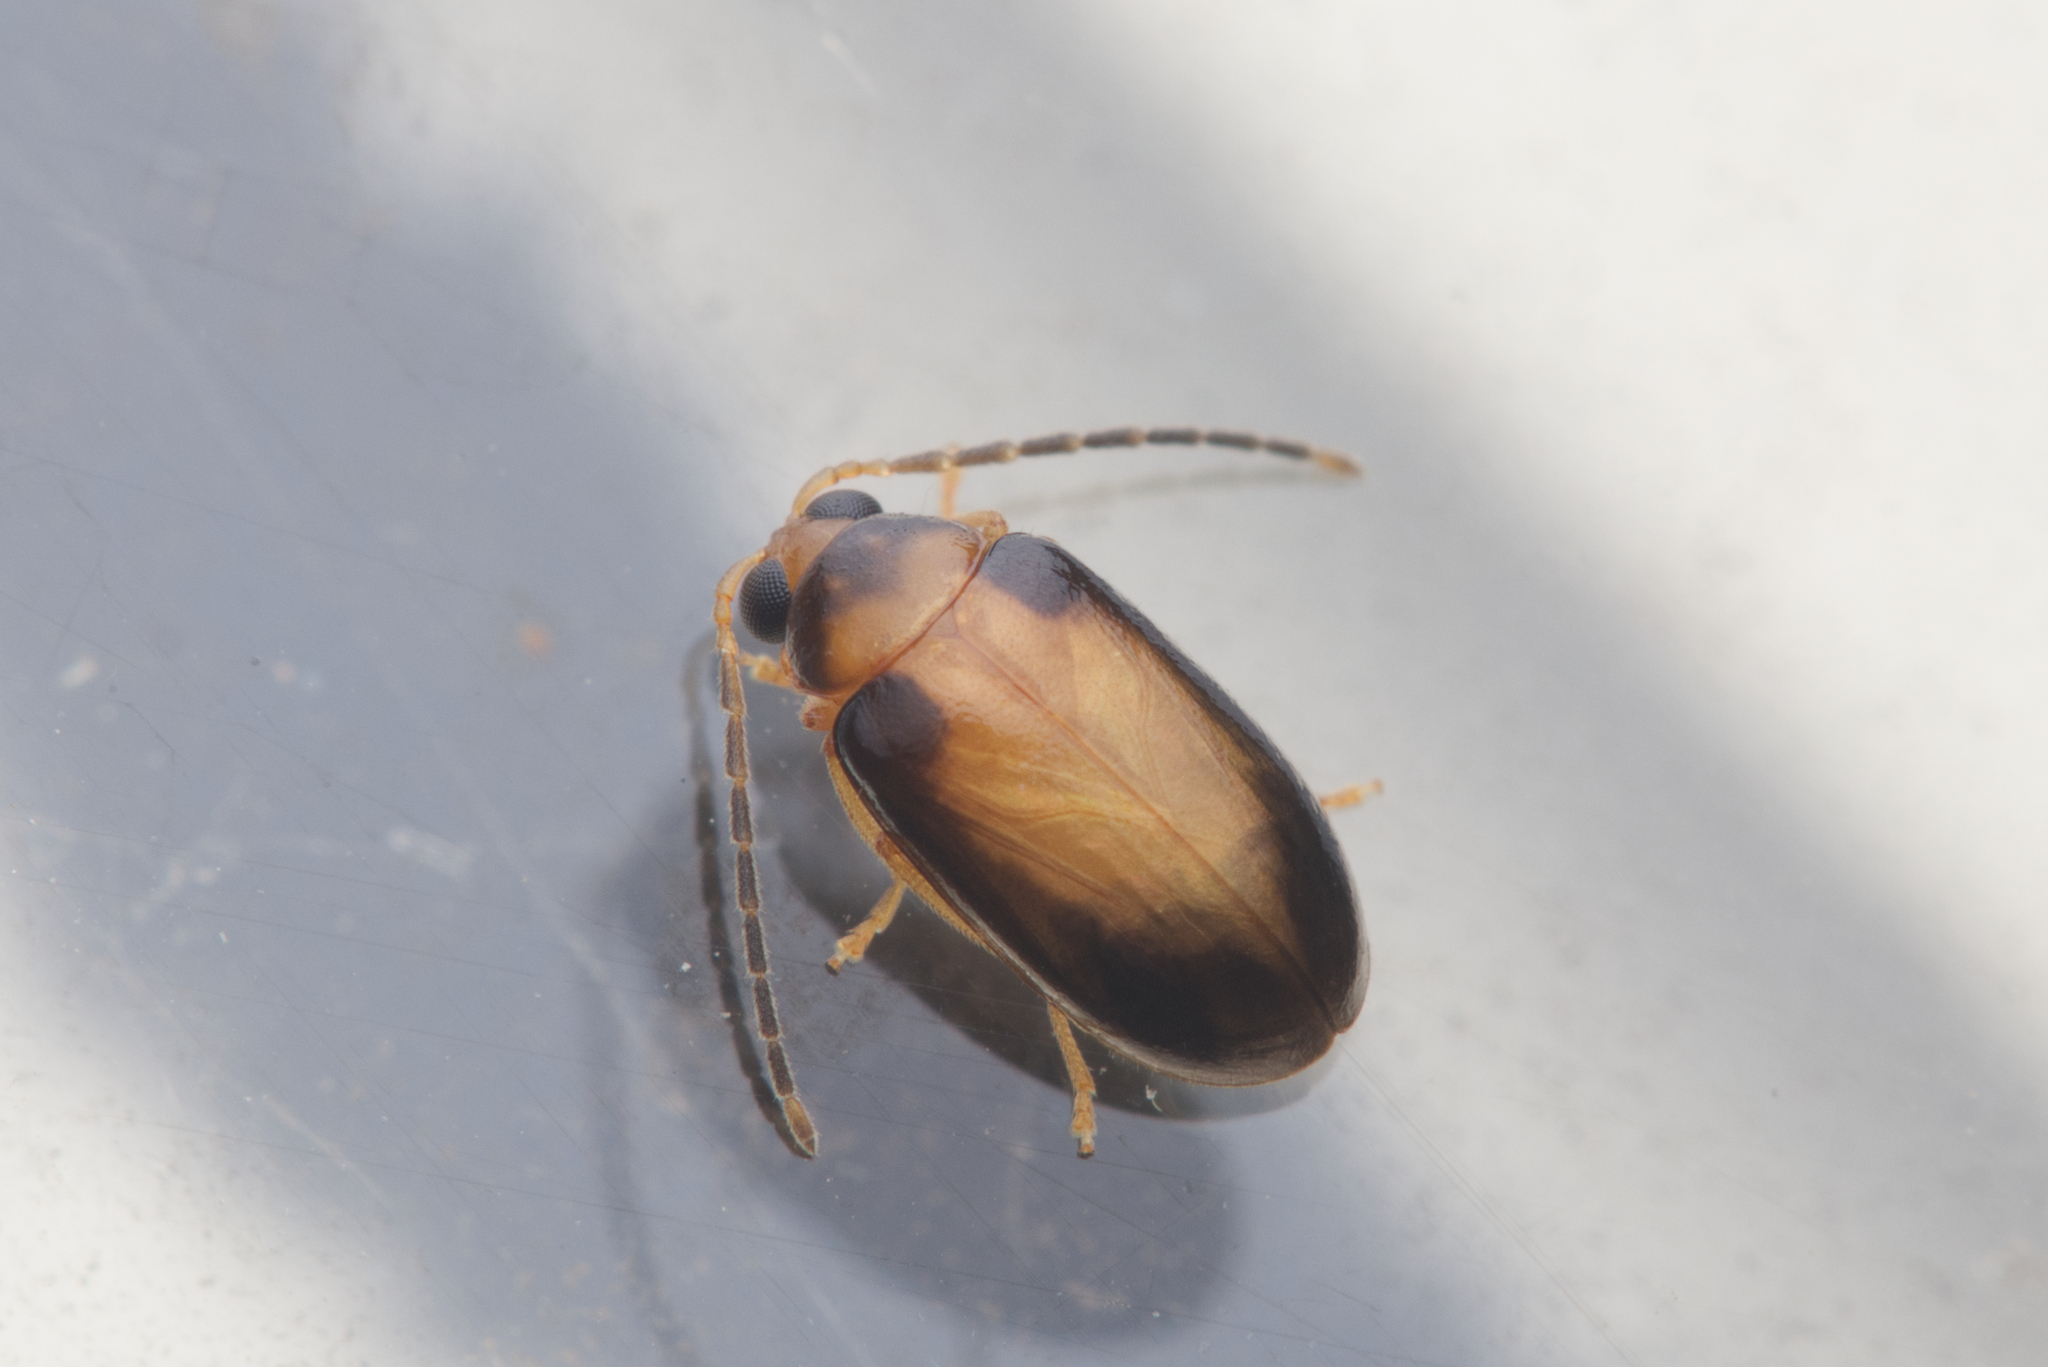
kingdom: Animalia
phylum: Arthropoda
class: Insecta
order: Coleoptera
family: Chrysomelidae
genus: Monolepta
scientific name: Monolepta
